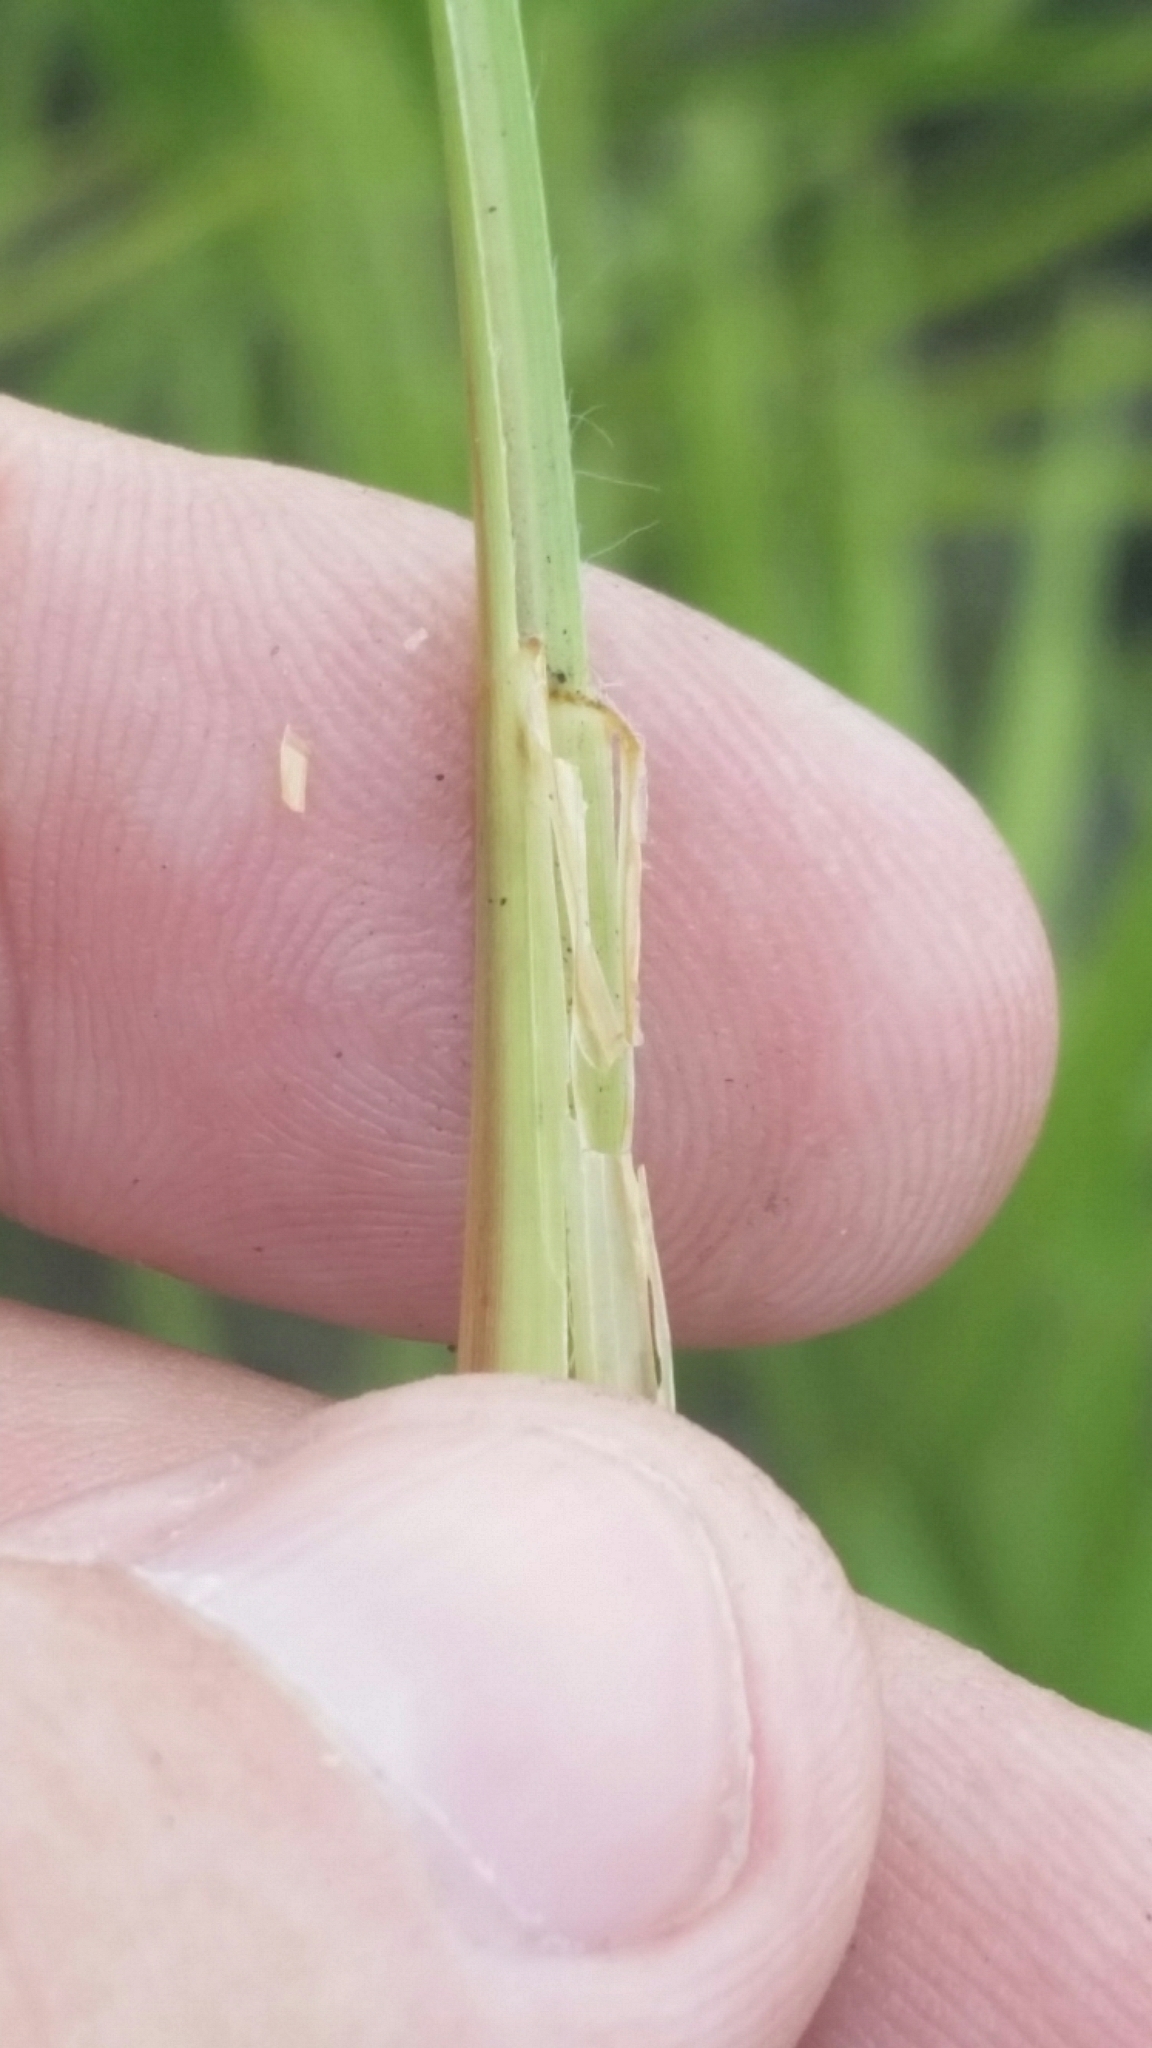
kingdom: Plantae
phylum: Tracheophyta
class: Liliopsida
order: Poales
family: Poaceae
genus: Coleataenia
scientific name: Coleataenia abscissa
